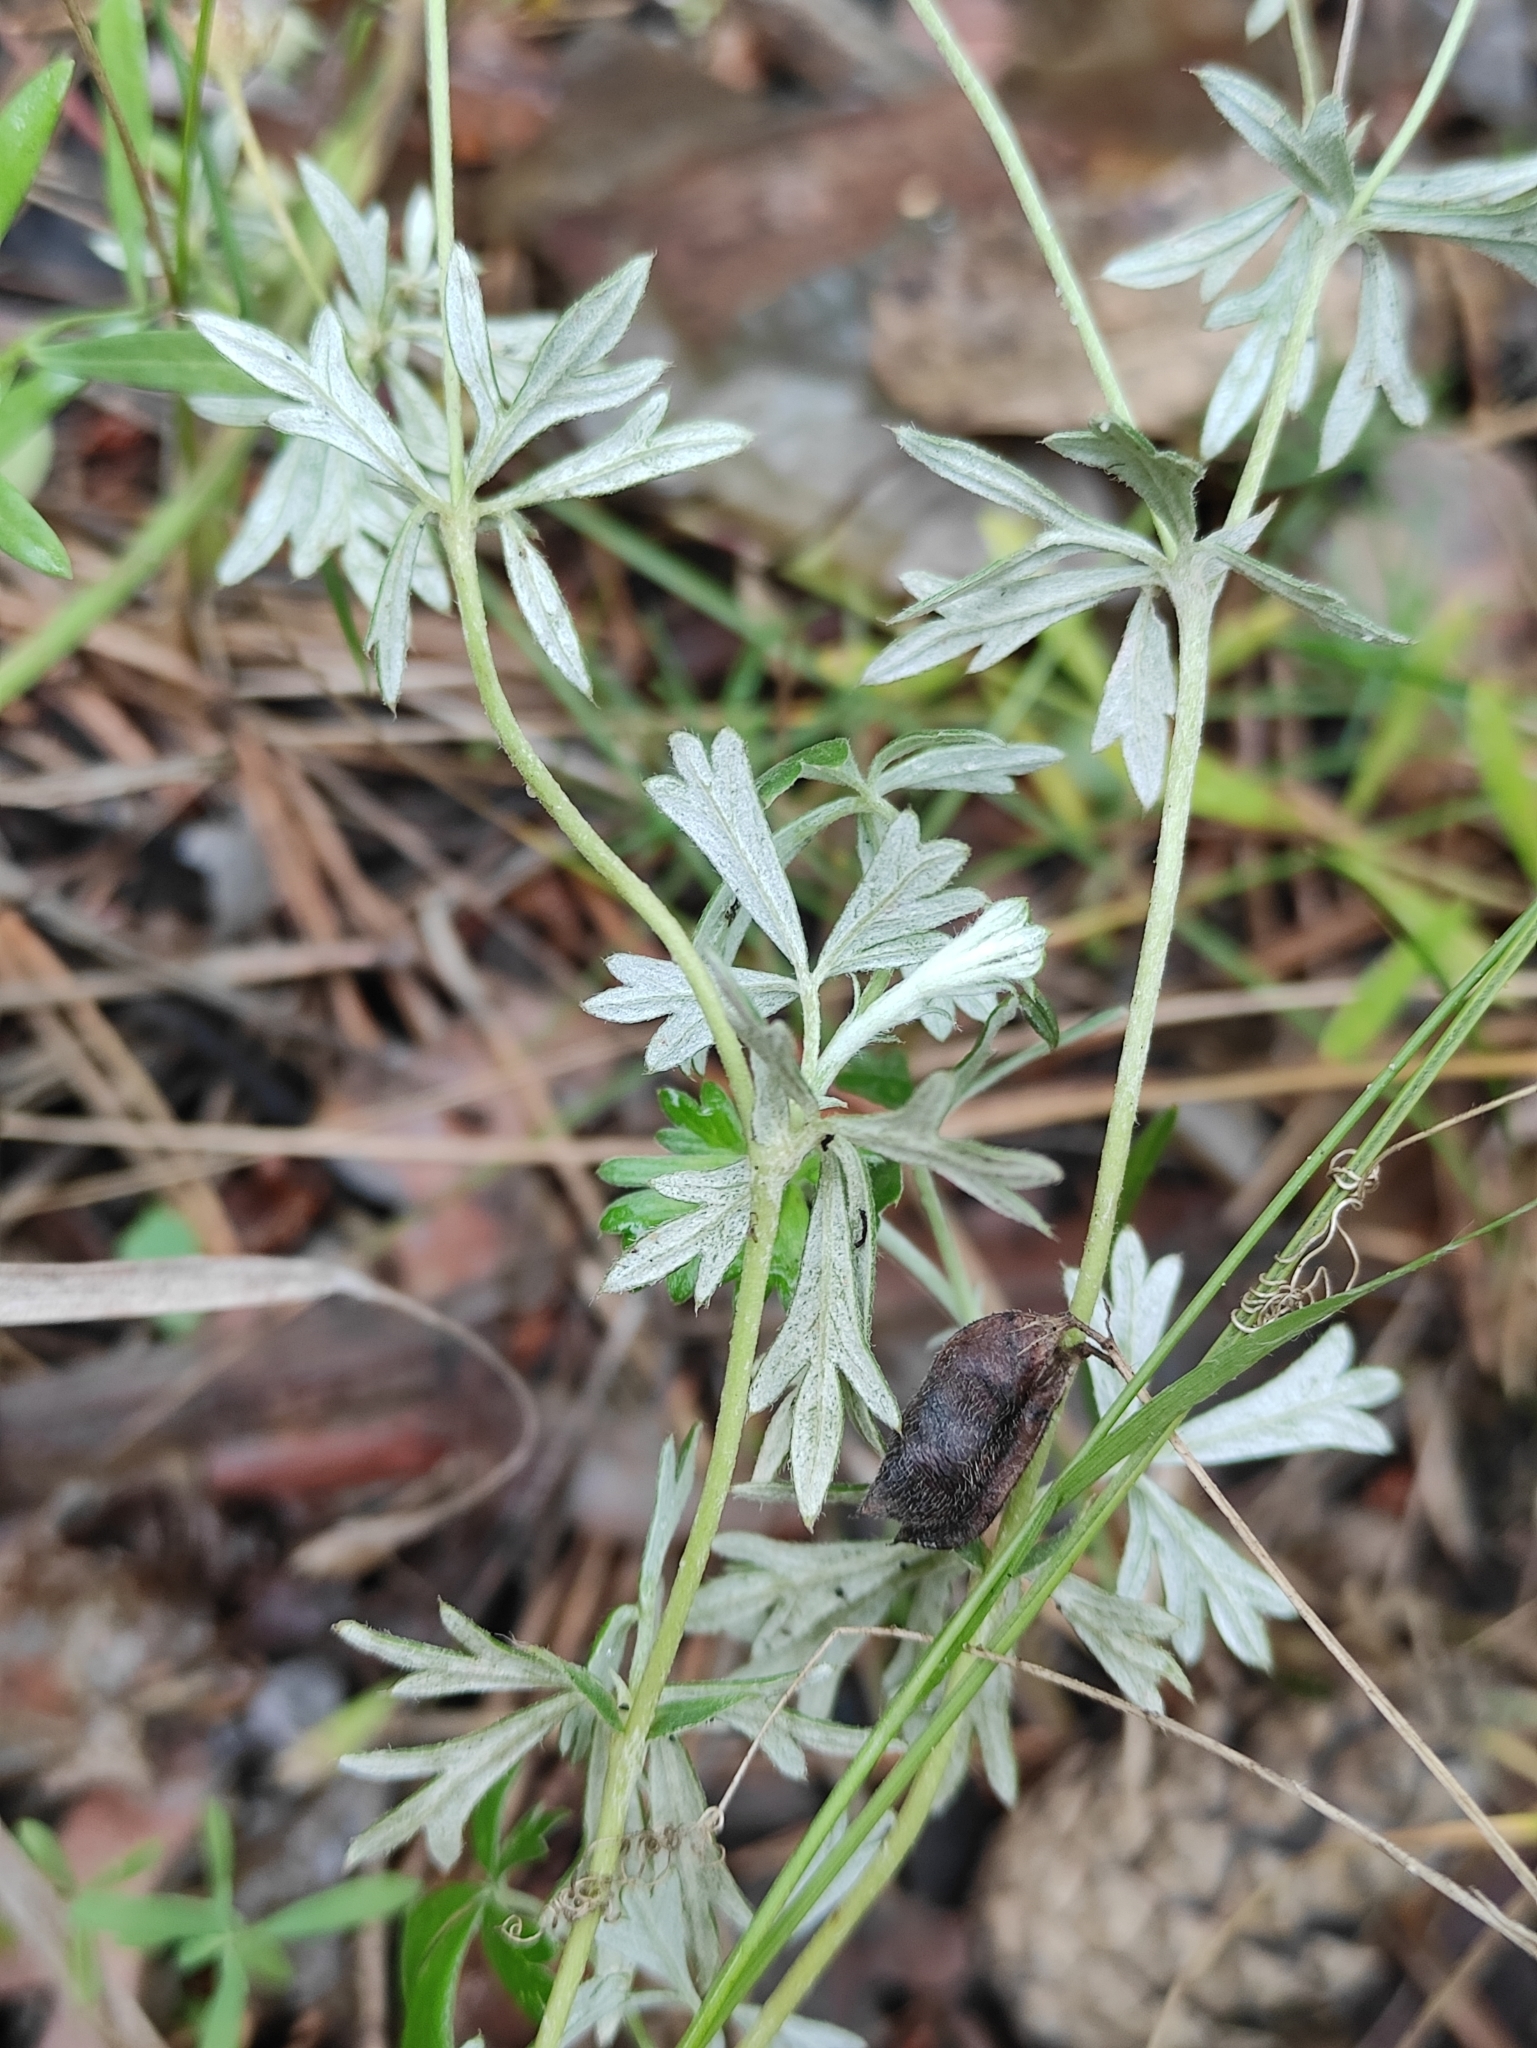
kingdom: Plantae
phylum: Tracheophyta
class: Magnoliopsida
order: Rosales
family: Rosaceae
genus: Potentilla
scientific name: Potentilla argentea
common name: Hoary cinquefoil
